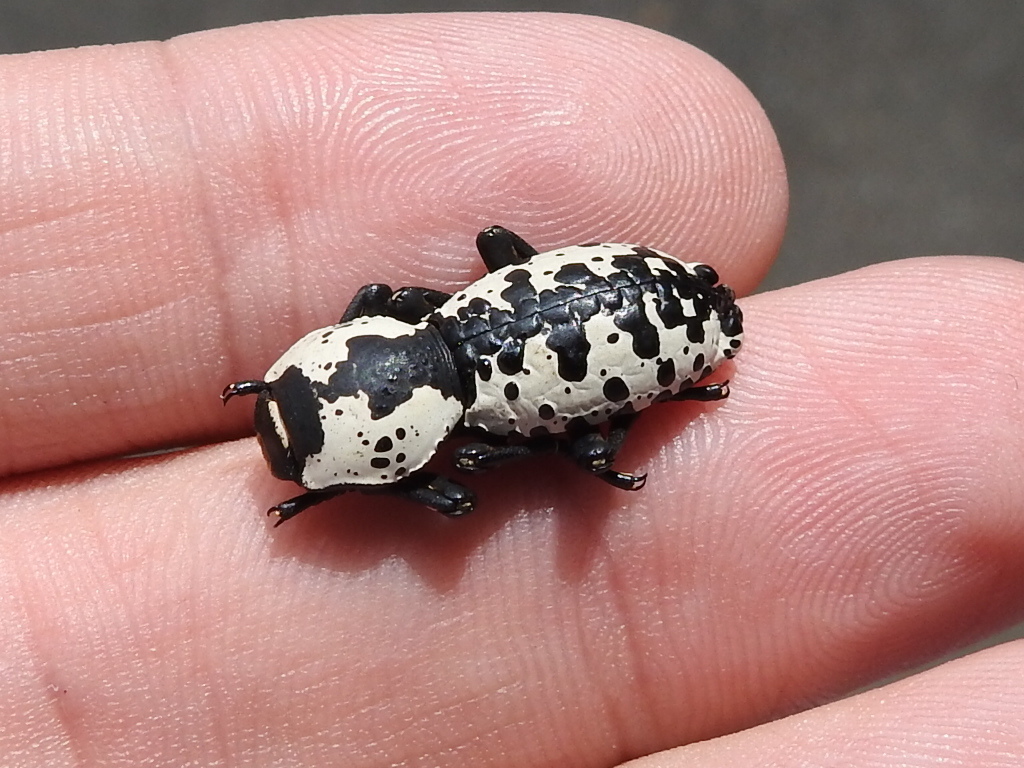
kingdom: Animalia
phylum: Arthropoda
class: Insecta
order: Coleoptera
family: Zopheridae
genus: Zopherus
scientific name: Zopherus nodulosus
